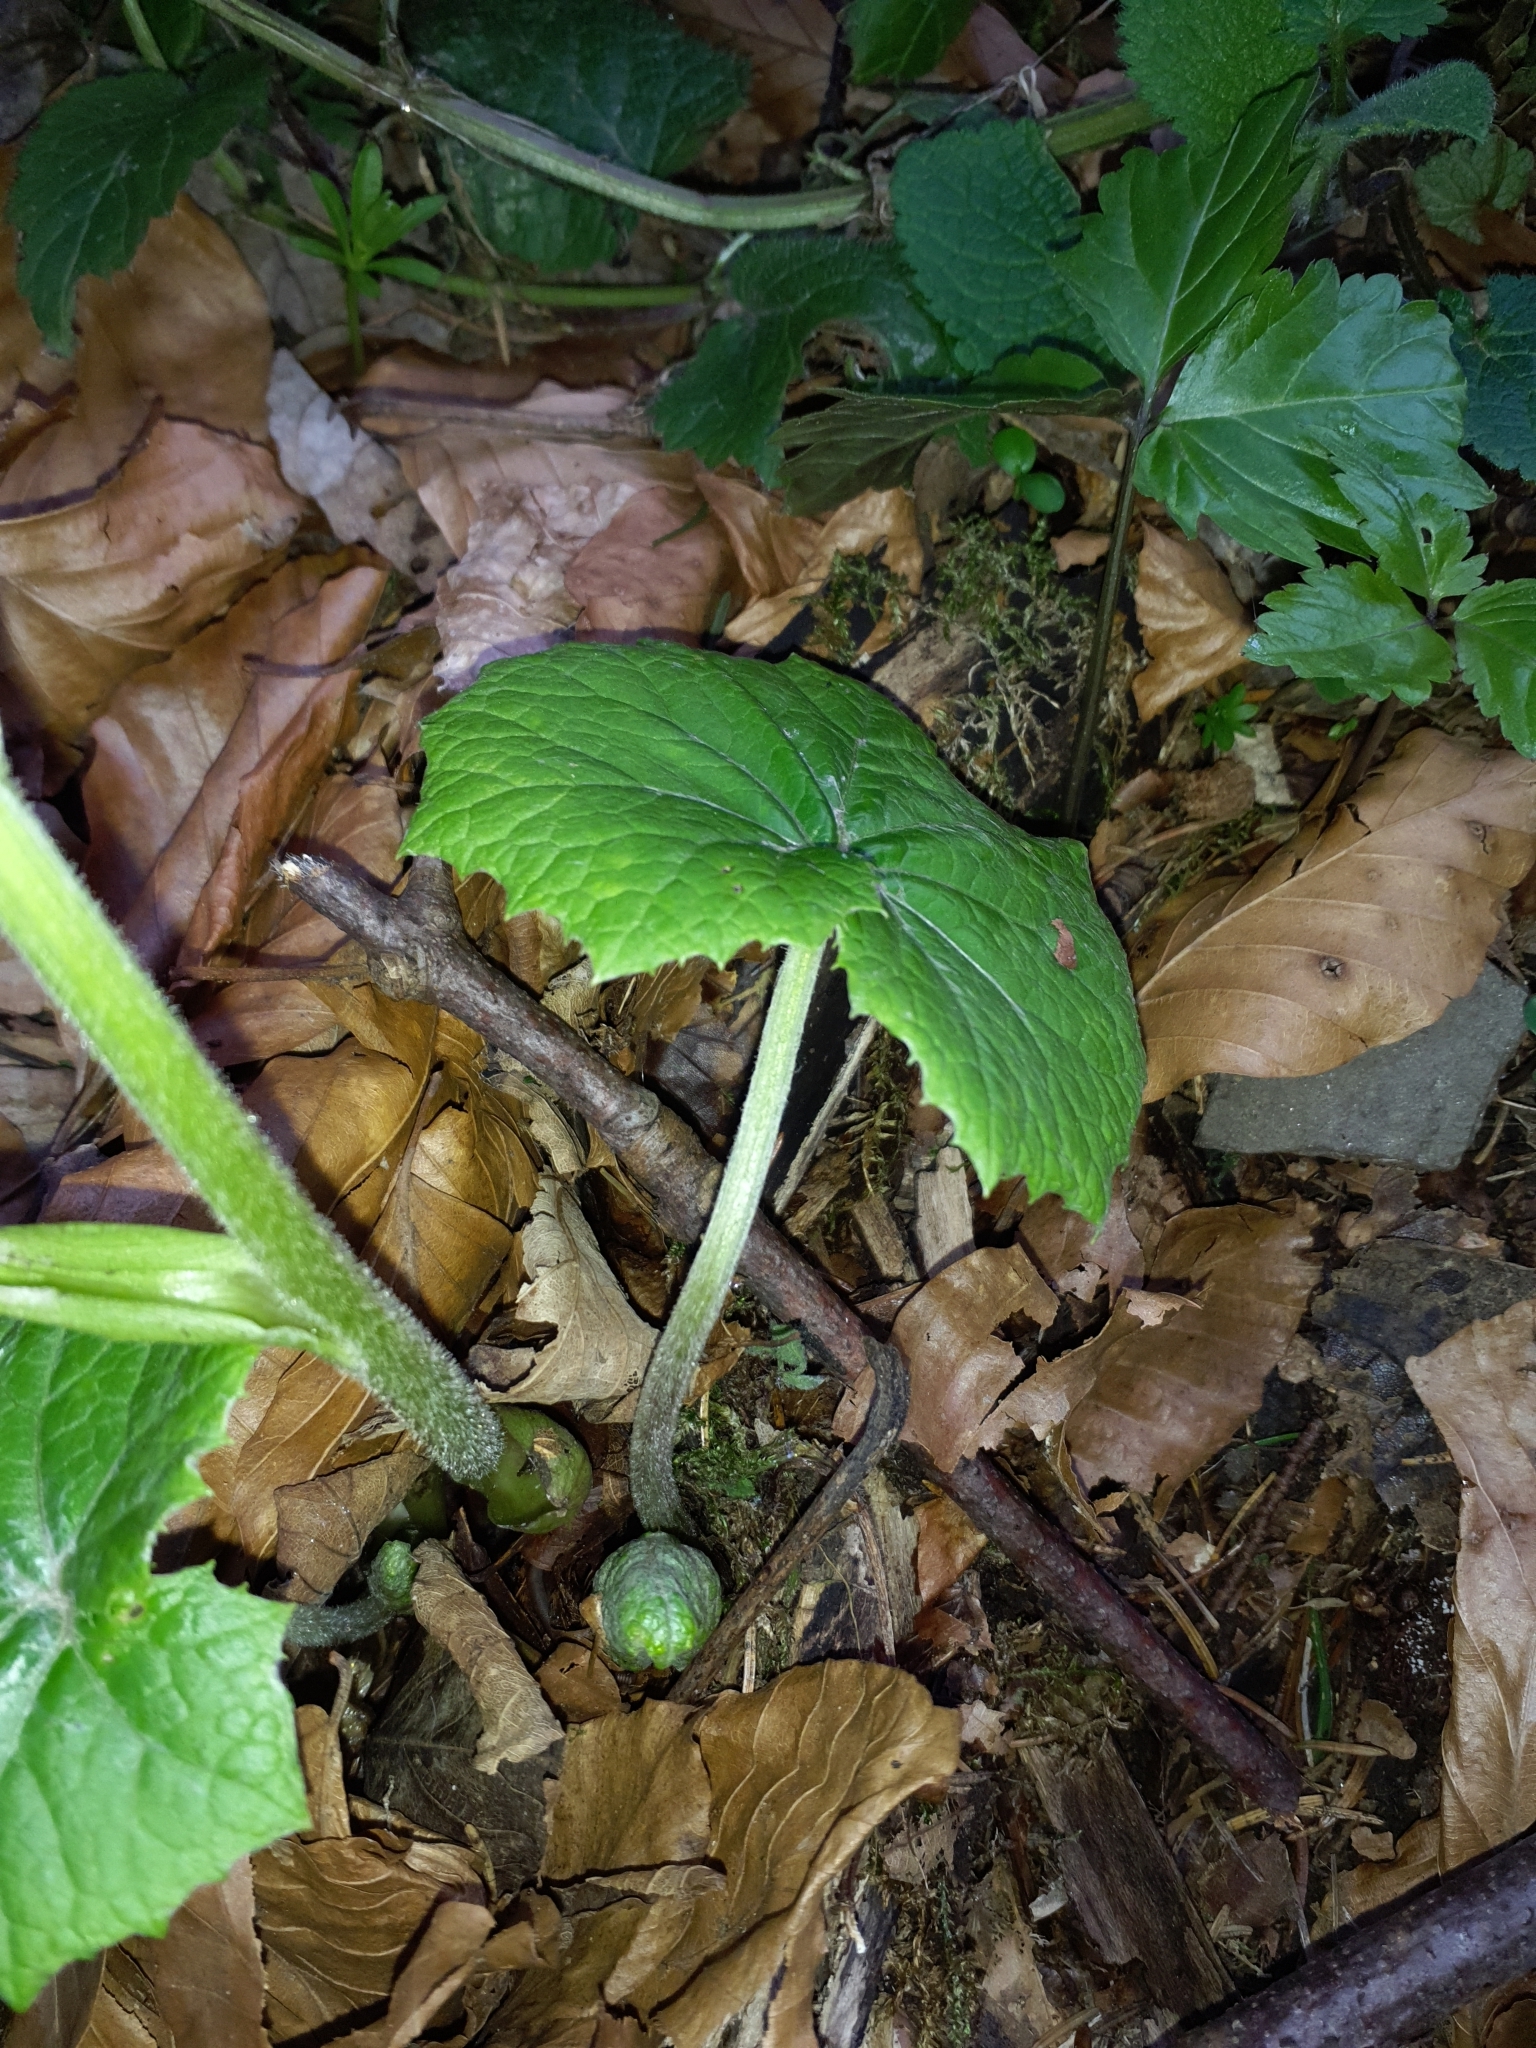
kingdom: Plantae
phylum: Tracheophyta
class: Magnoliopsida
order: Asterales
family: Asteraceae
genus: Petasites
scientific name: Petasites albus
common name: White butterbur
